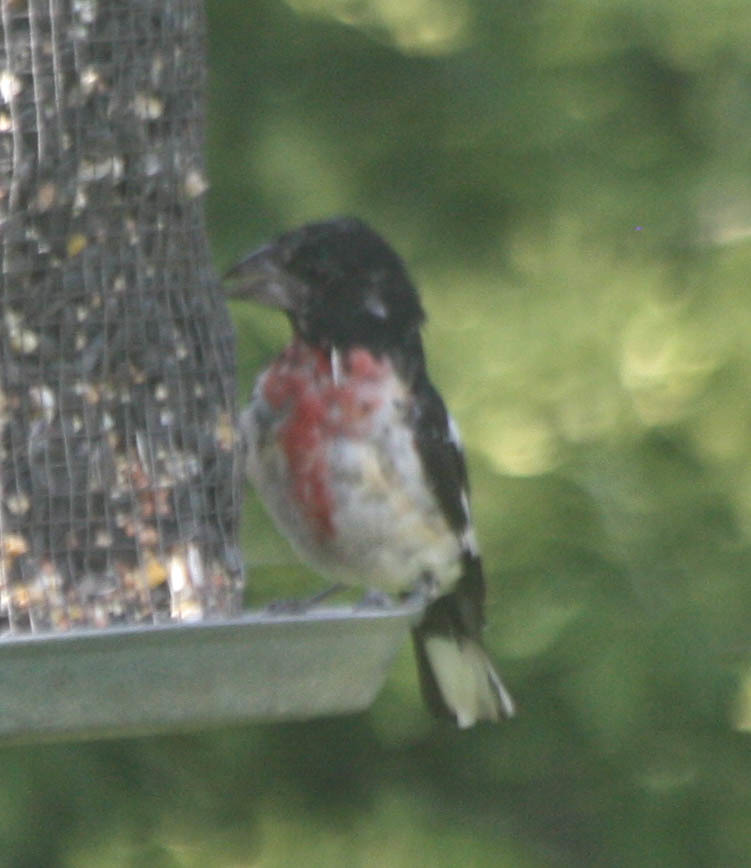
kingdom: Animalia
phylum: Chordata
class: Aves
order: Passeriformes
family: Cardinalidae
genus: Pheucticus
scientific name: Pheucticus ludovicianus
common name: Rose-breasted grosbeak
